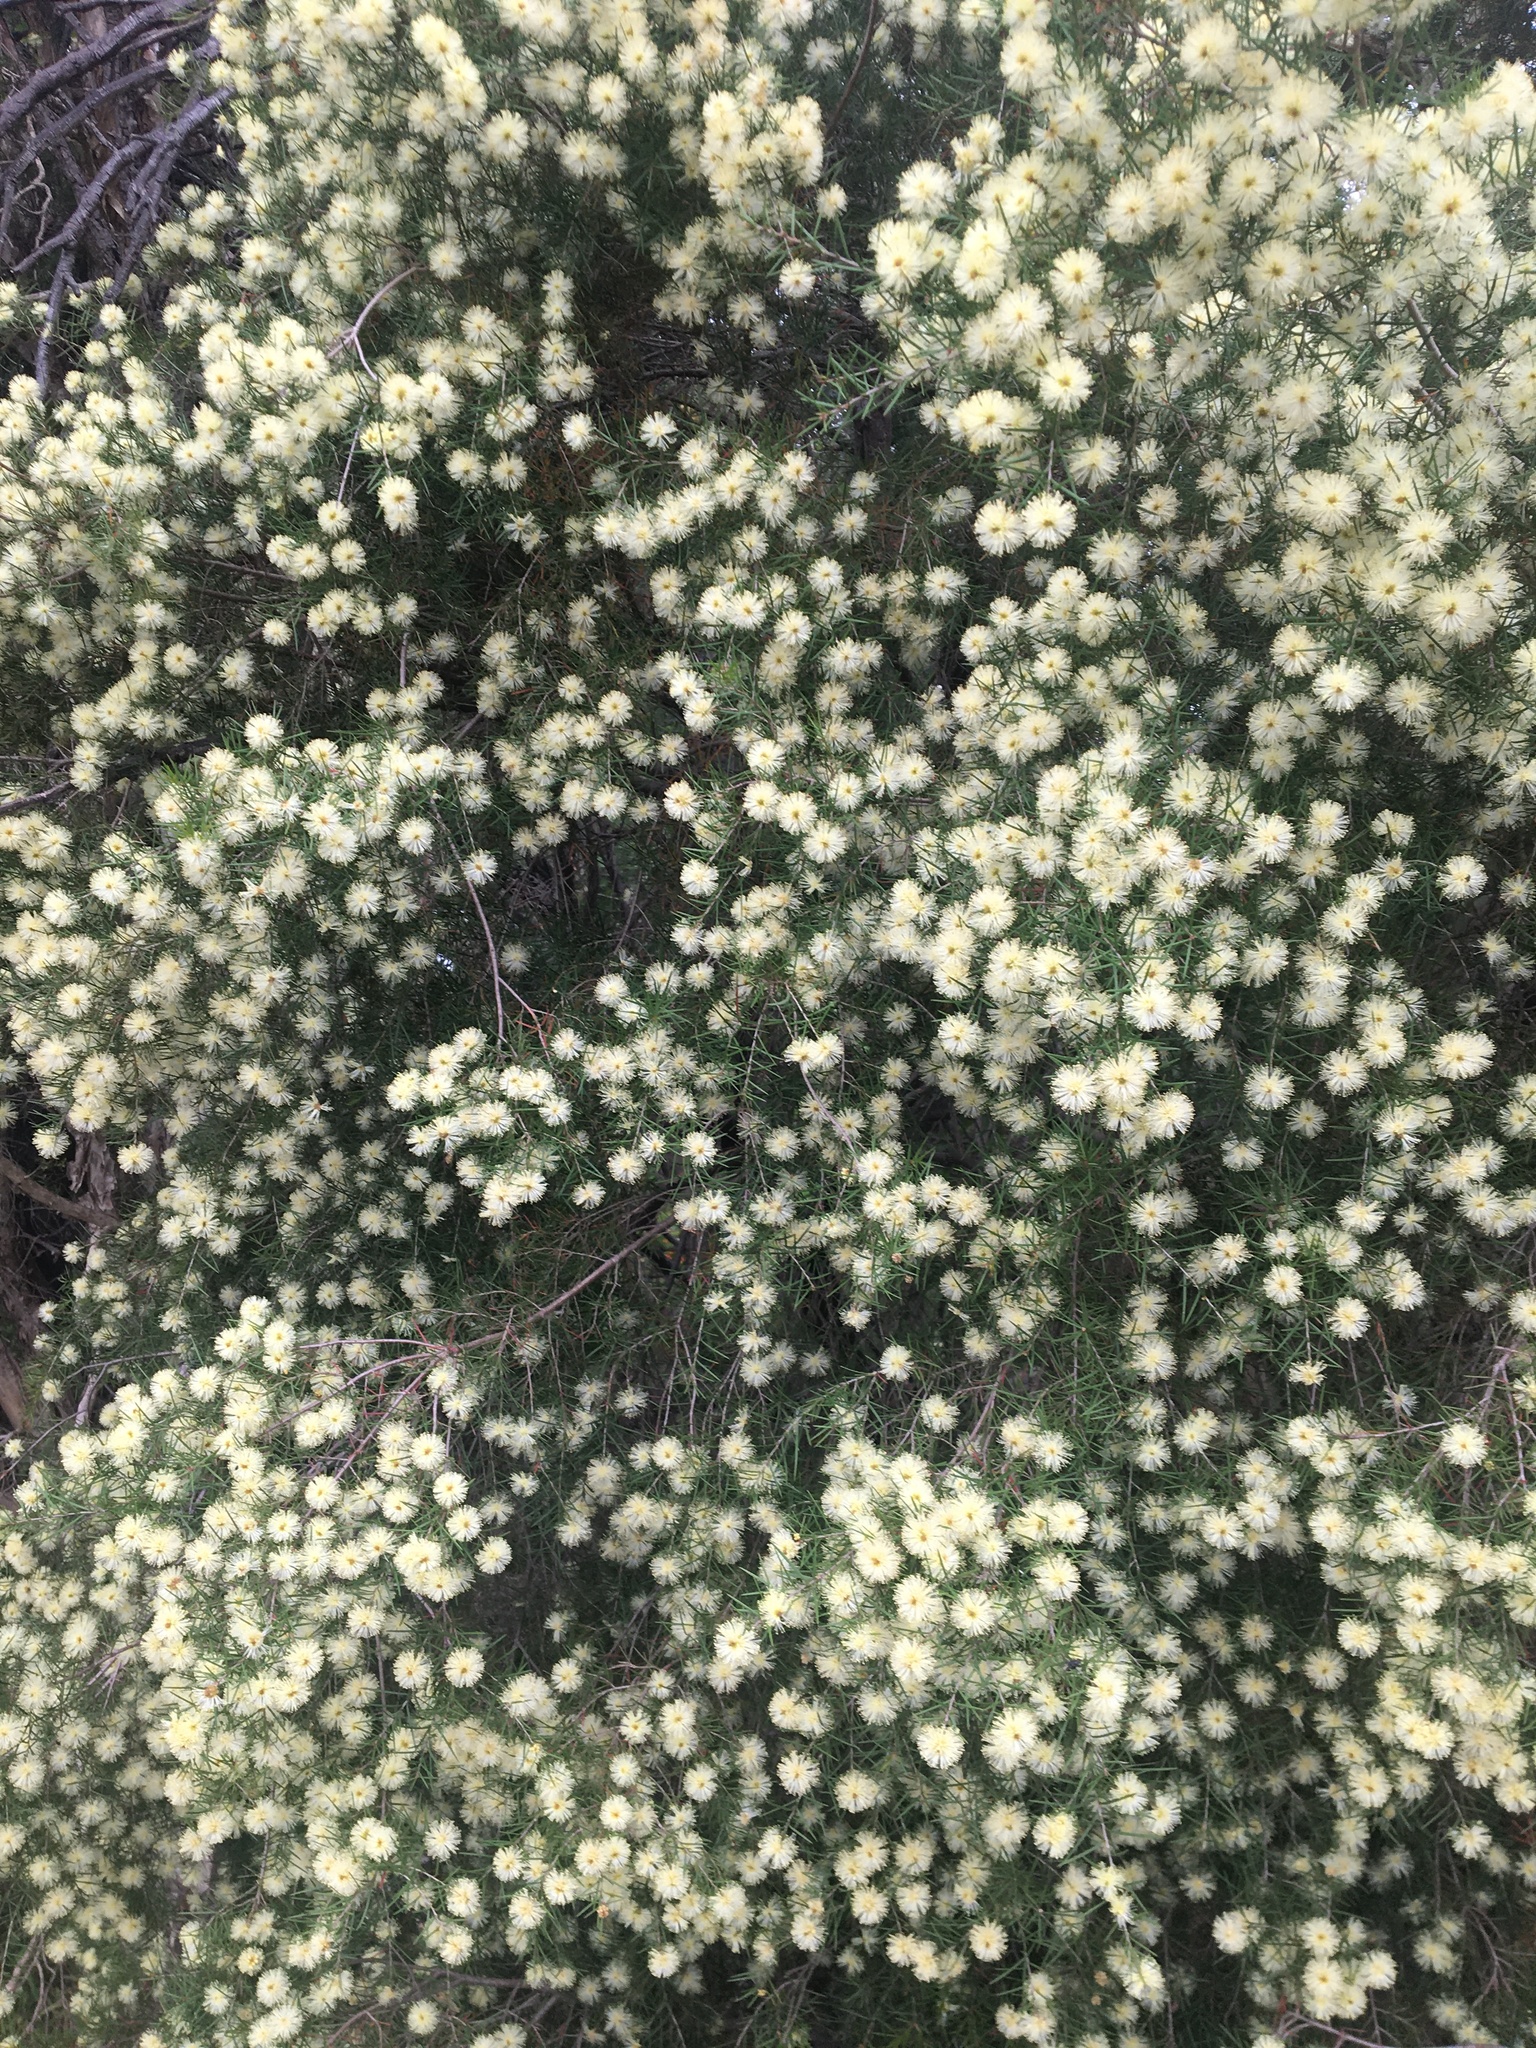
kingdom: Plantae
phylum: Tracheophyta
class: Magnoliopsida
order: Myrtales
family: Myrtaceae
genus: Melaleuca
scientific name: Melaleuca nodosa
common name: Prickly-leaf paperbark
